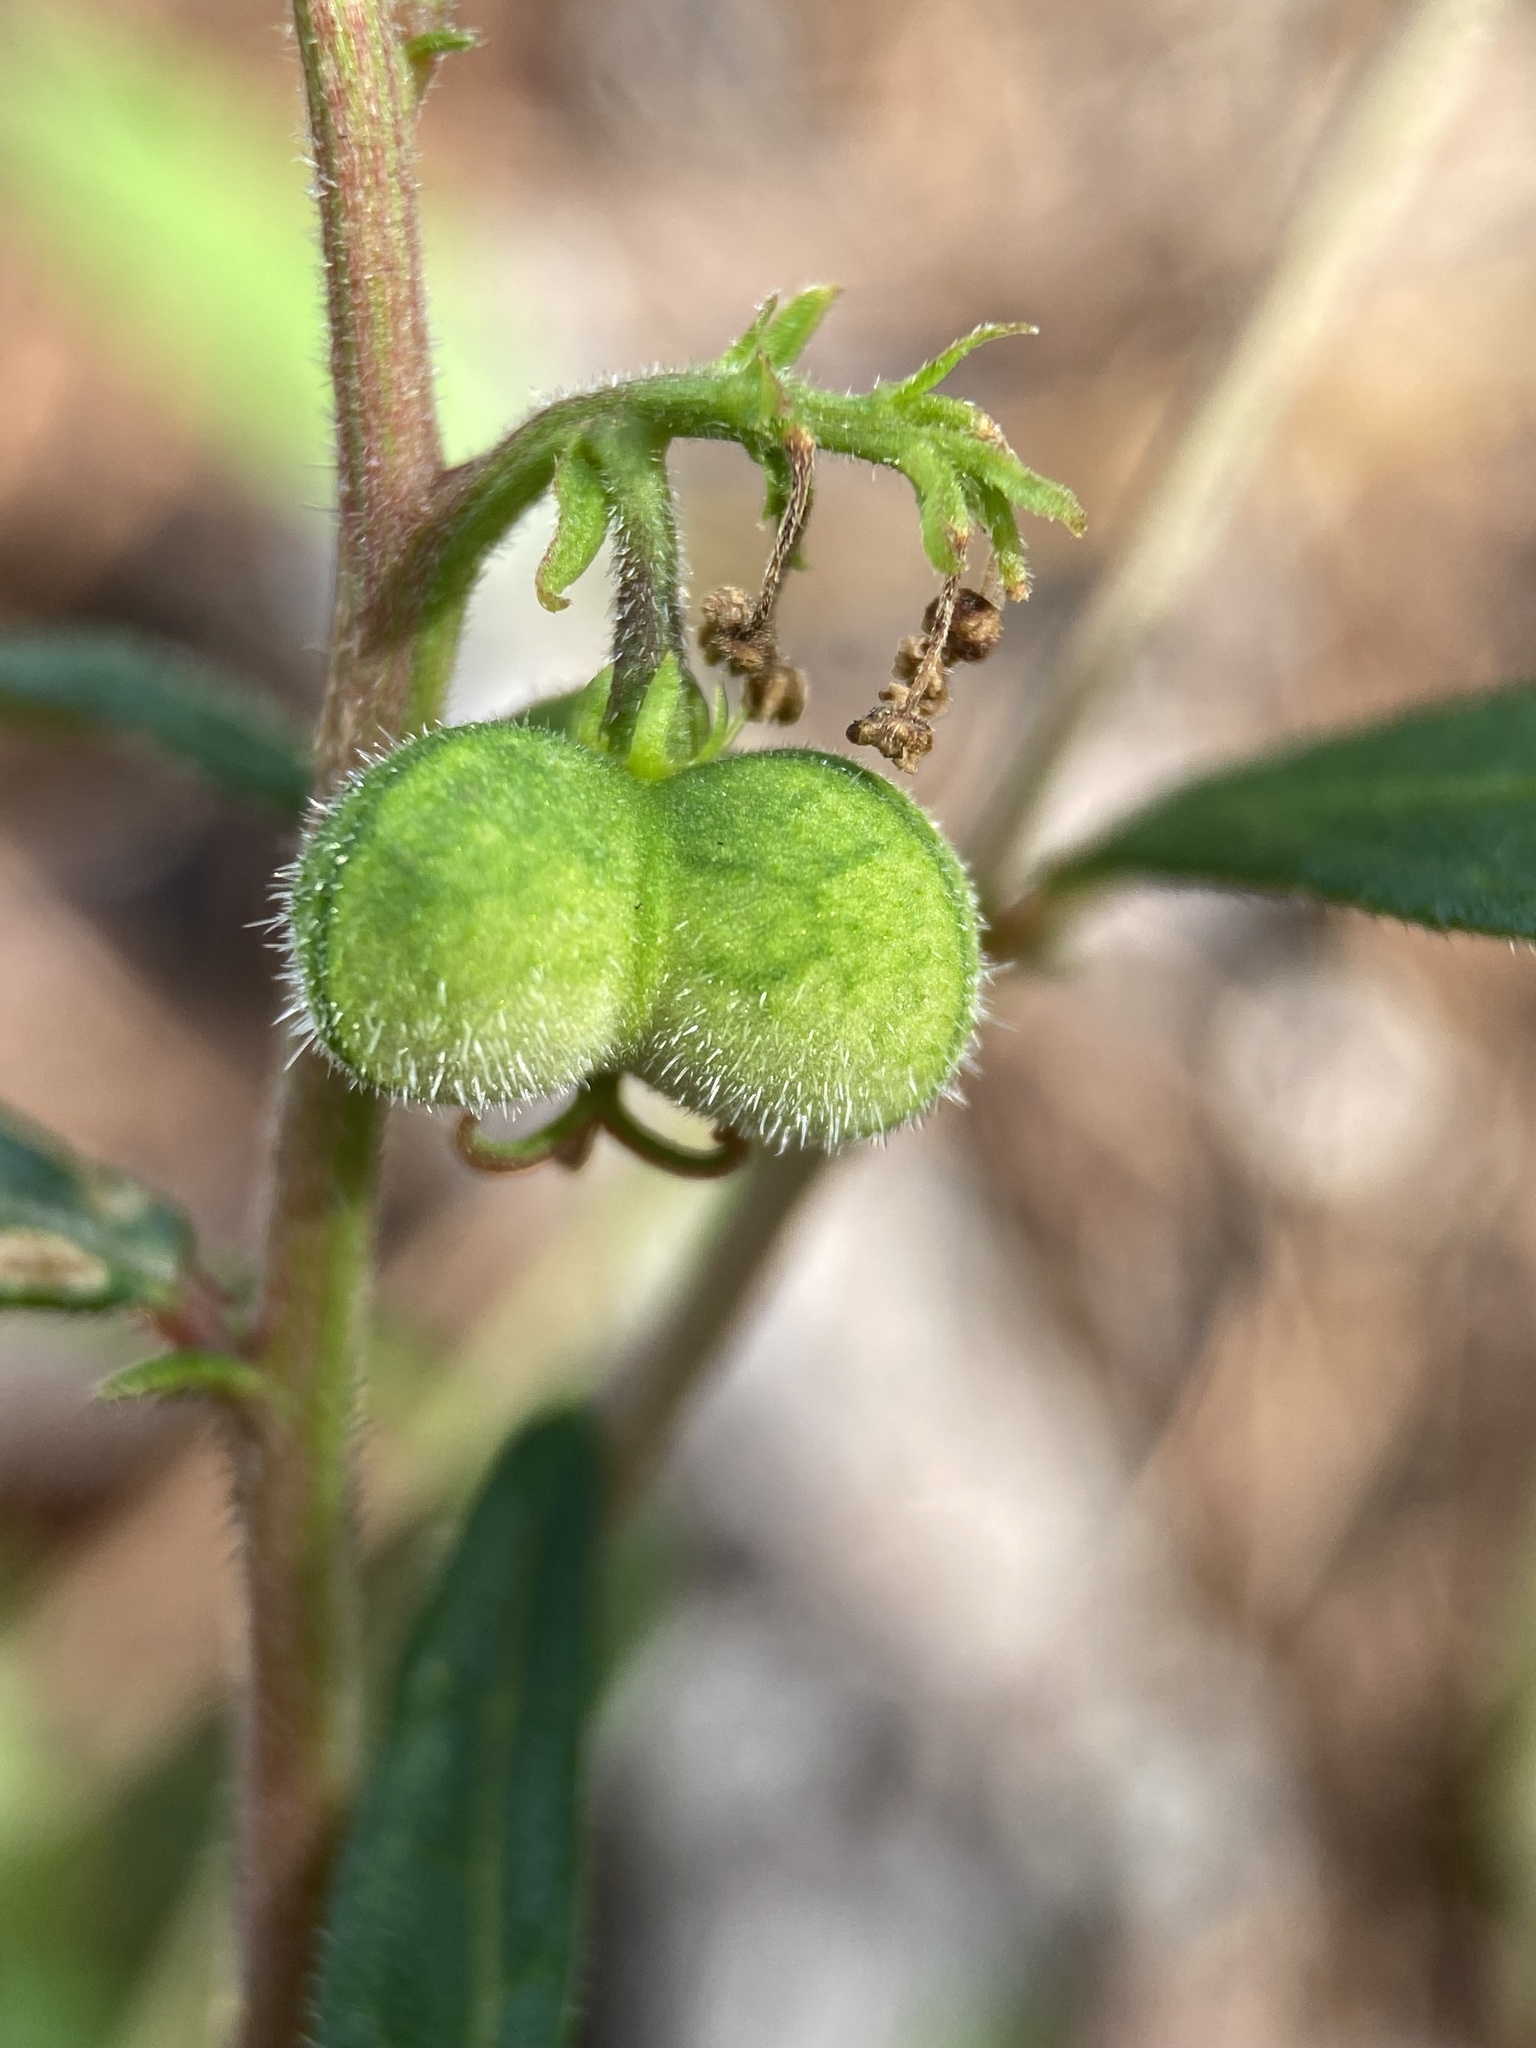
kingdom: Plantae
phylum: Tracheophyta
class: Magnoliopsida
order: Malpighiales
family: Euphorbiaceae
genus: Tragia
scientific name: Tragia urens
